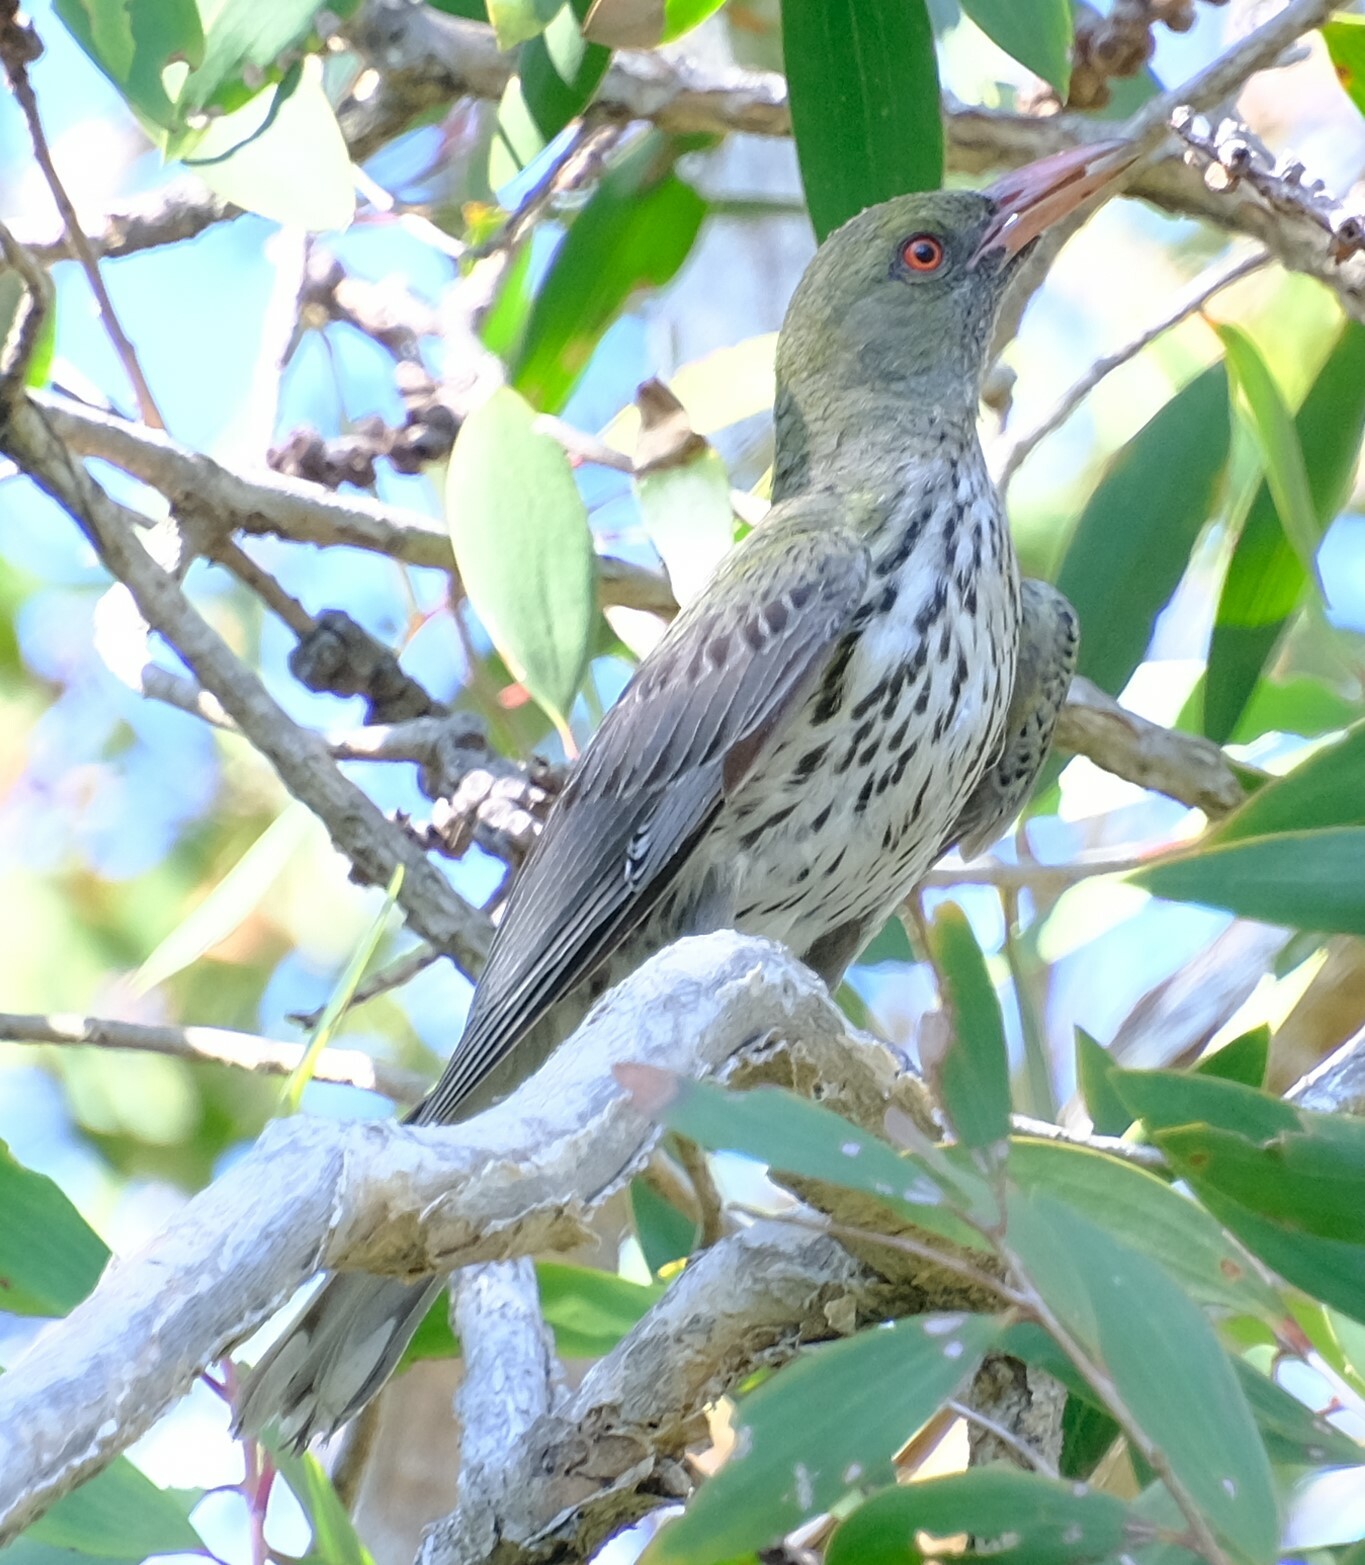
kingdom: Animalia
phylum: Chordata
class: Aves
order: Passeriformes
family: Oriolidae
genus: Oriolus
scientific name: Oriolus sagittatus
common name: Olive-backed oriole
